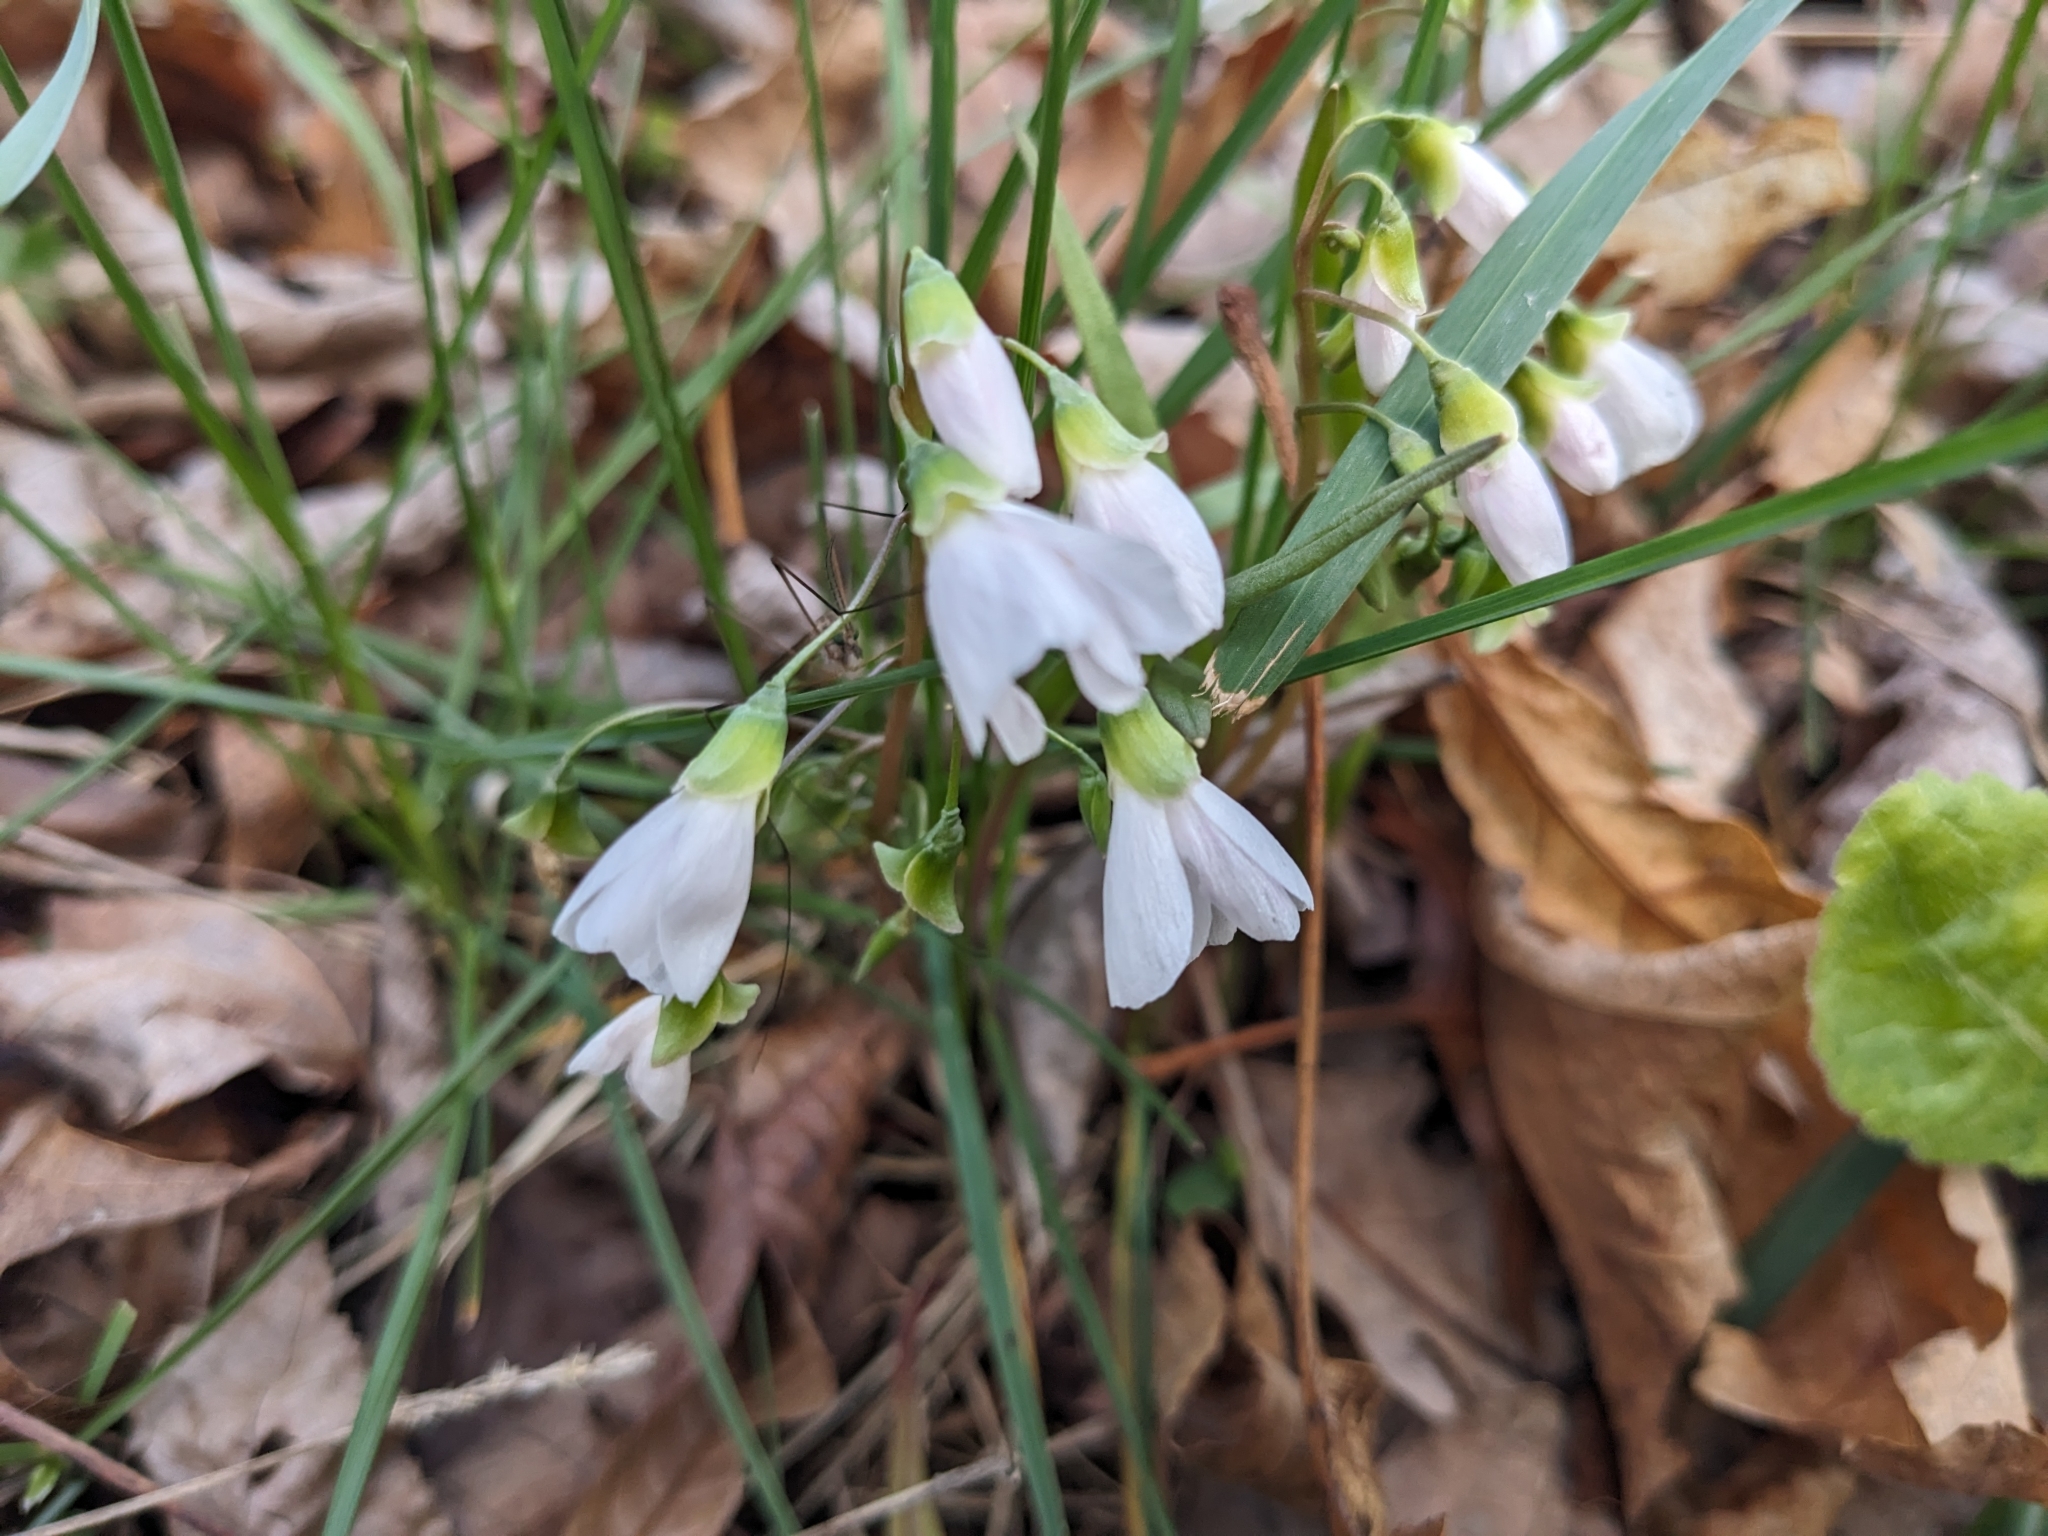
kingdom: Plantae
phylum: Tracheophyta
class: Magnoliopsida
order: Caryophyllales
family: Montiaceae
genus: Claytonia
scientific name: Claytonia virginica
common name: Virginia springbeauty
